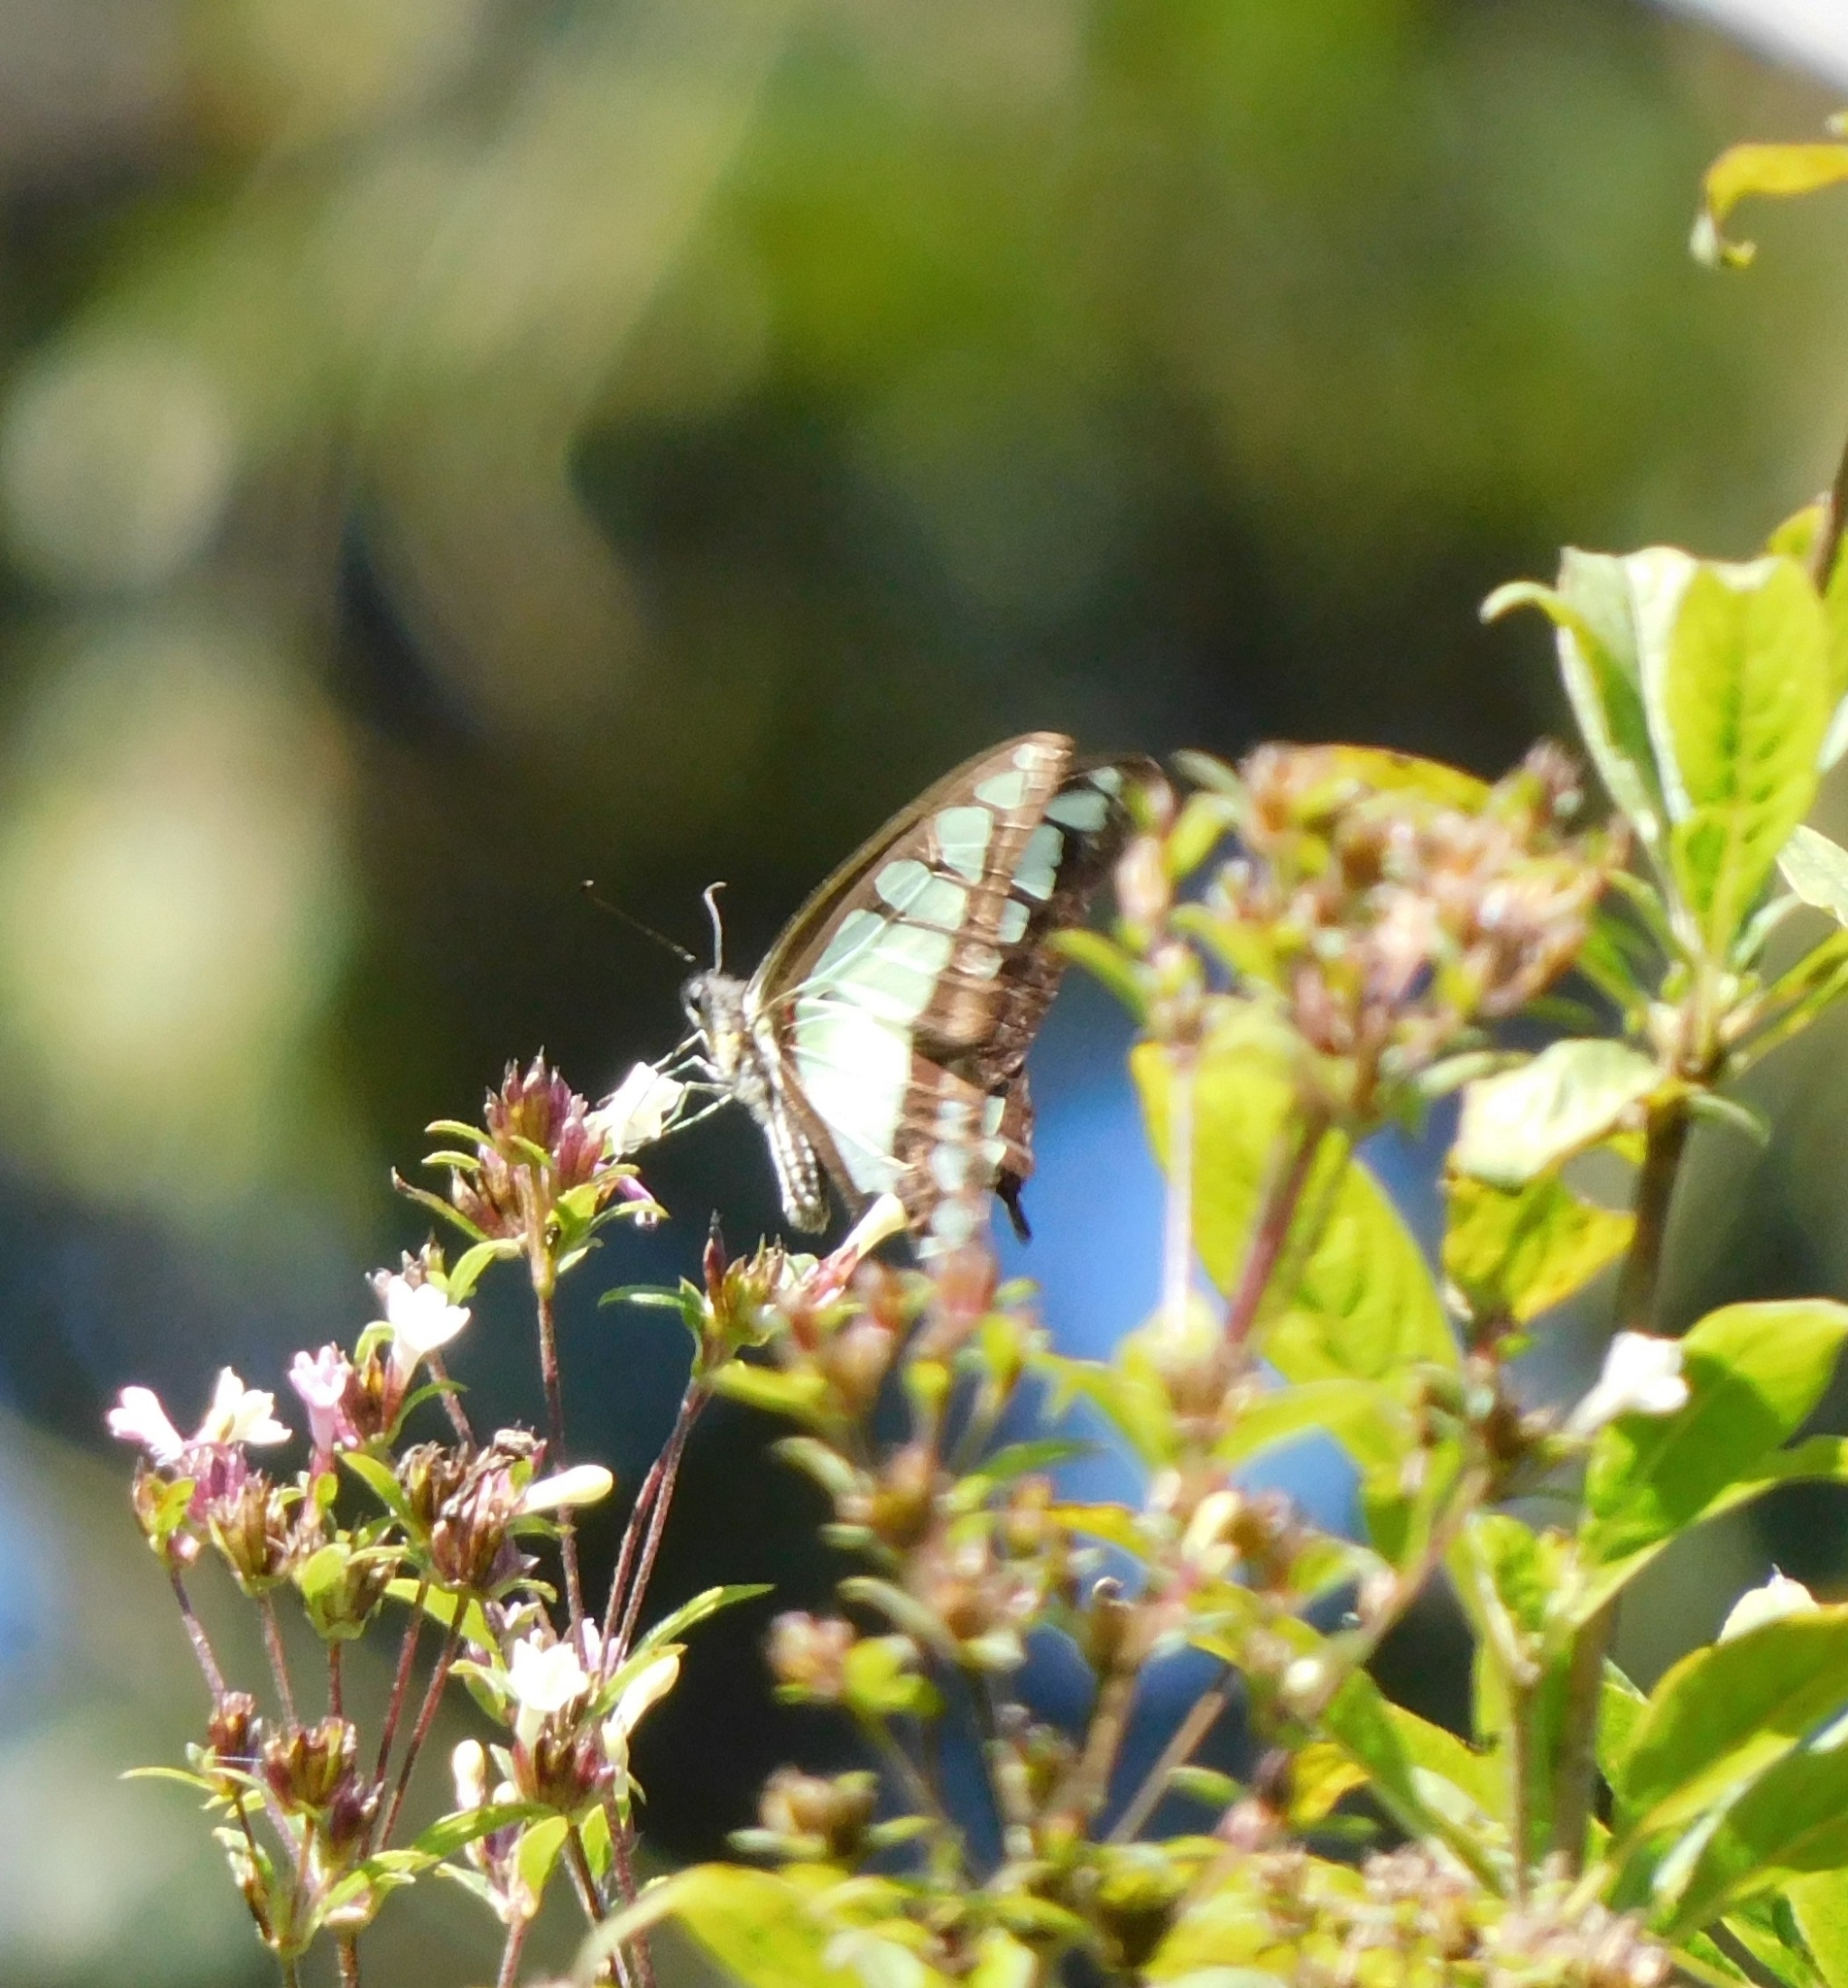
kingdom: Animalia
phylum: Arthropoda
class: Insecta
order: Lepidoptera
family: Papilionidae
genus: Graphium
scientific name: Graphium cloanthus
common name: Glassy bluebottle
